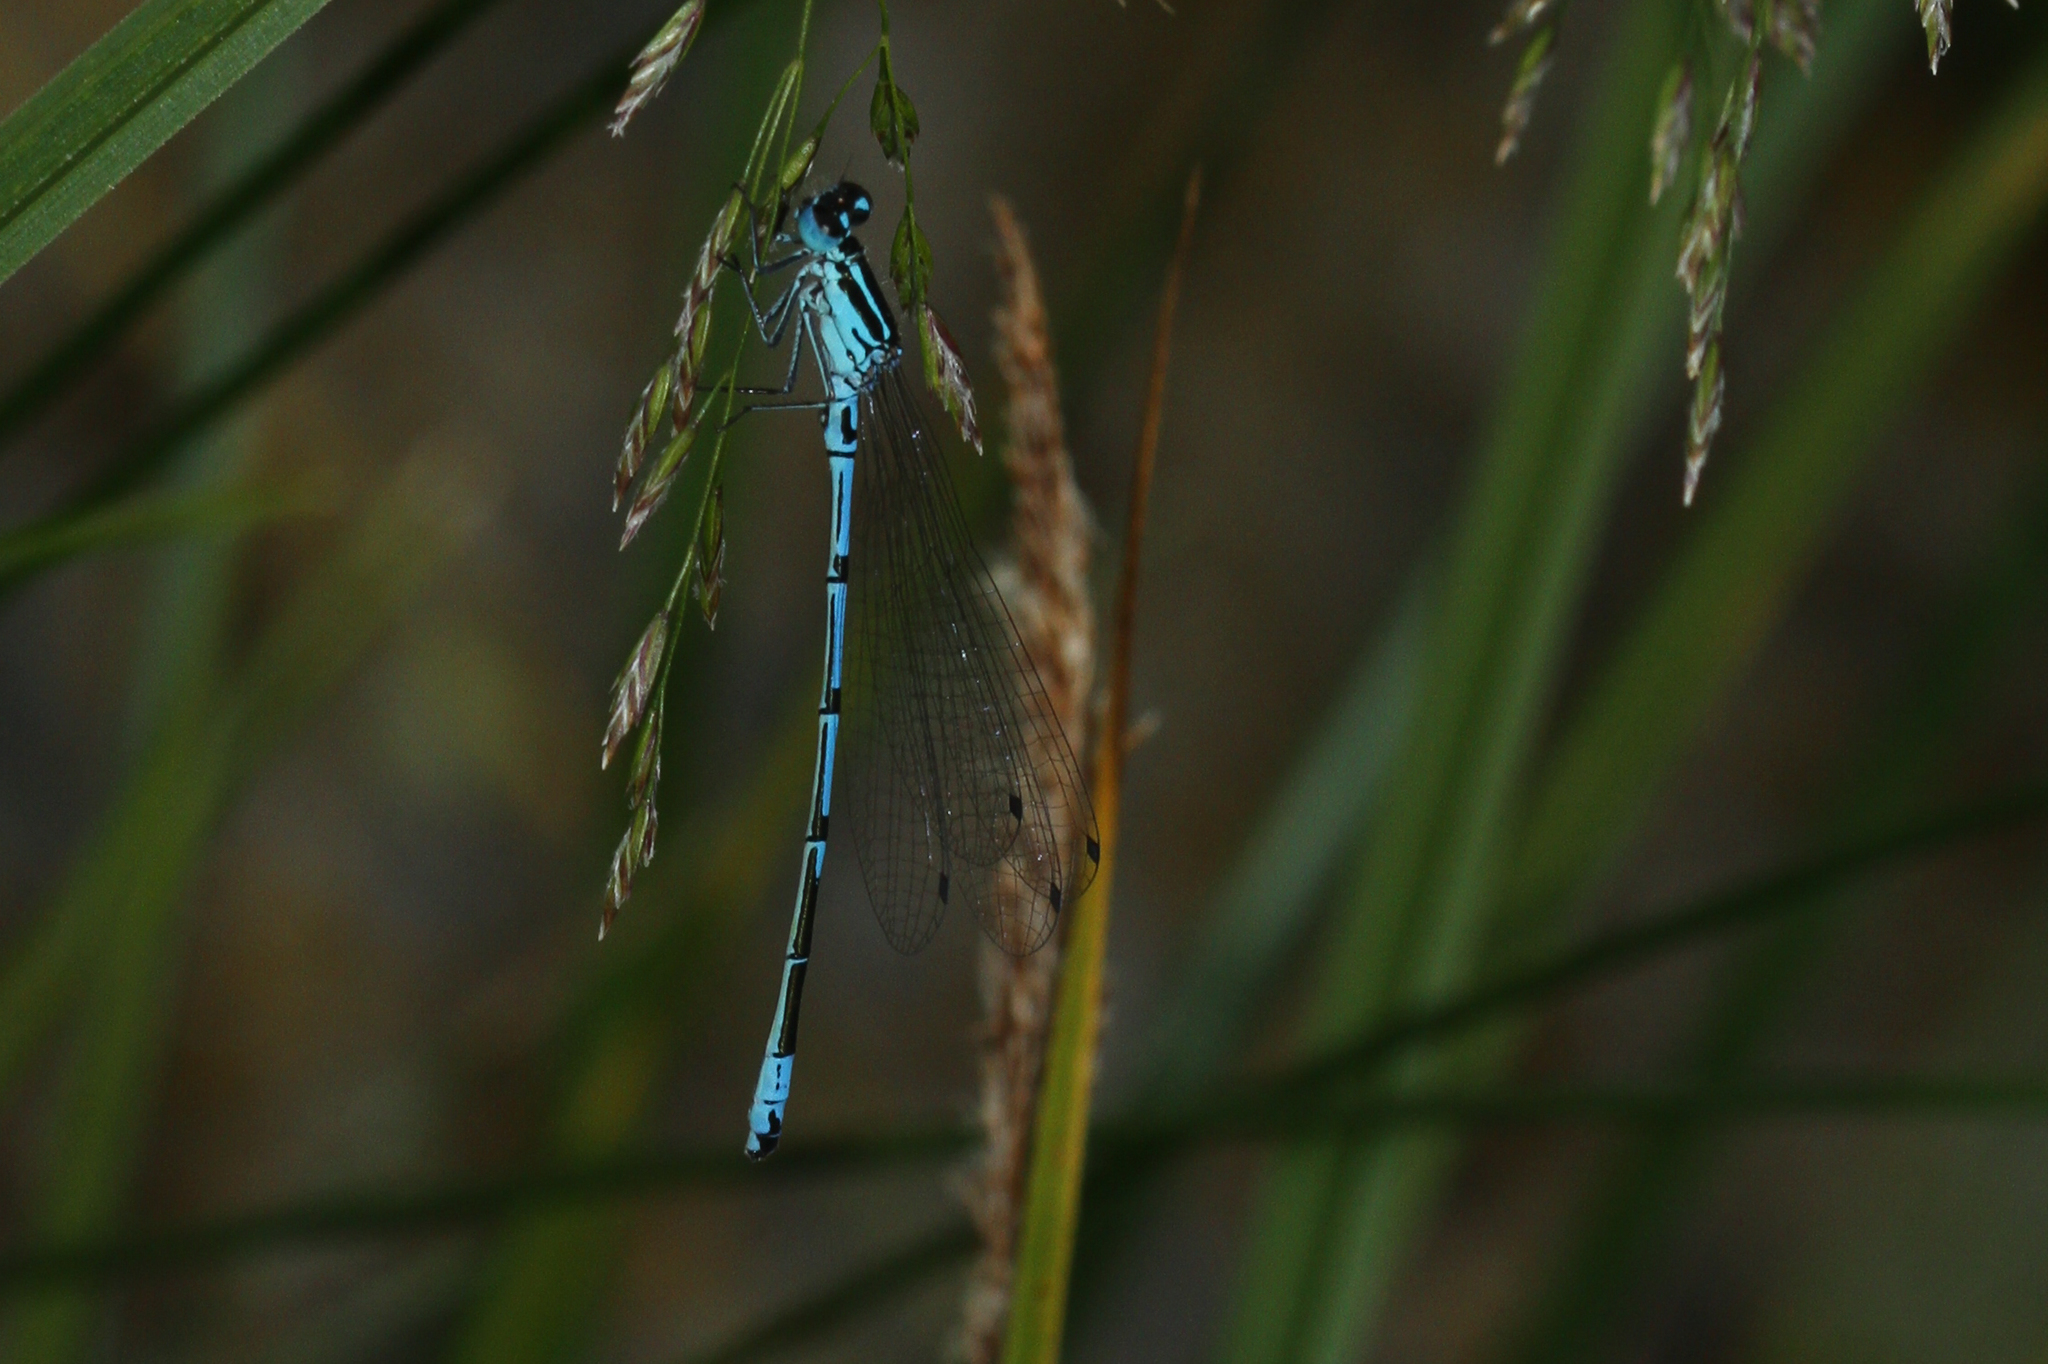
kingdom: Animalia
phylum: Arthropoda
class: Insecta
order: Odonata
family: Coenagrionidae
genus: Coenagrion
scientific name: Coenagrion puella
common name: Azure damselfly
